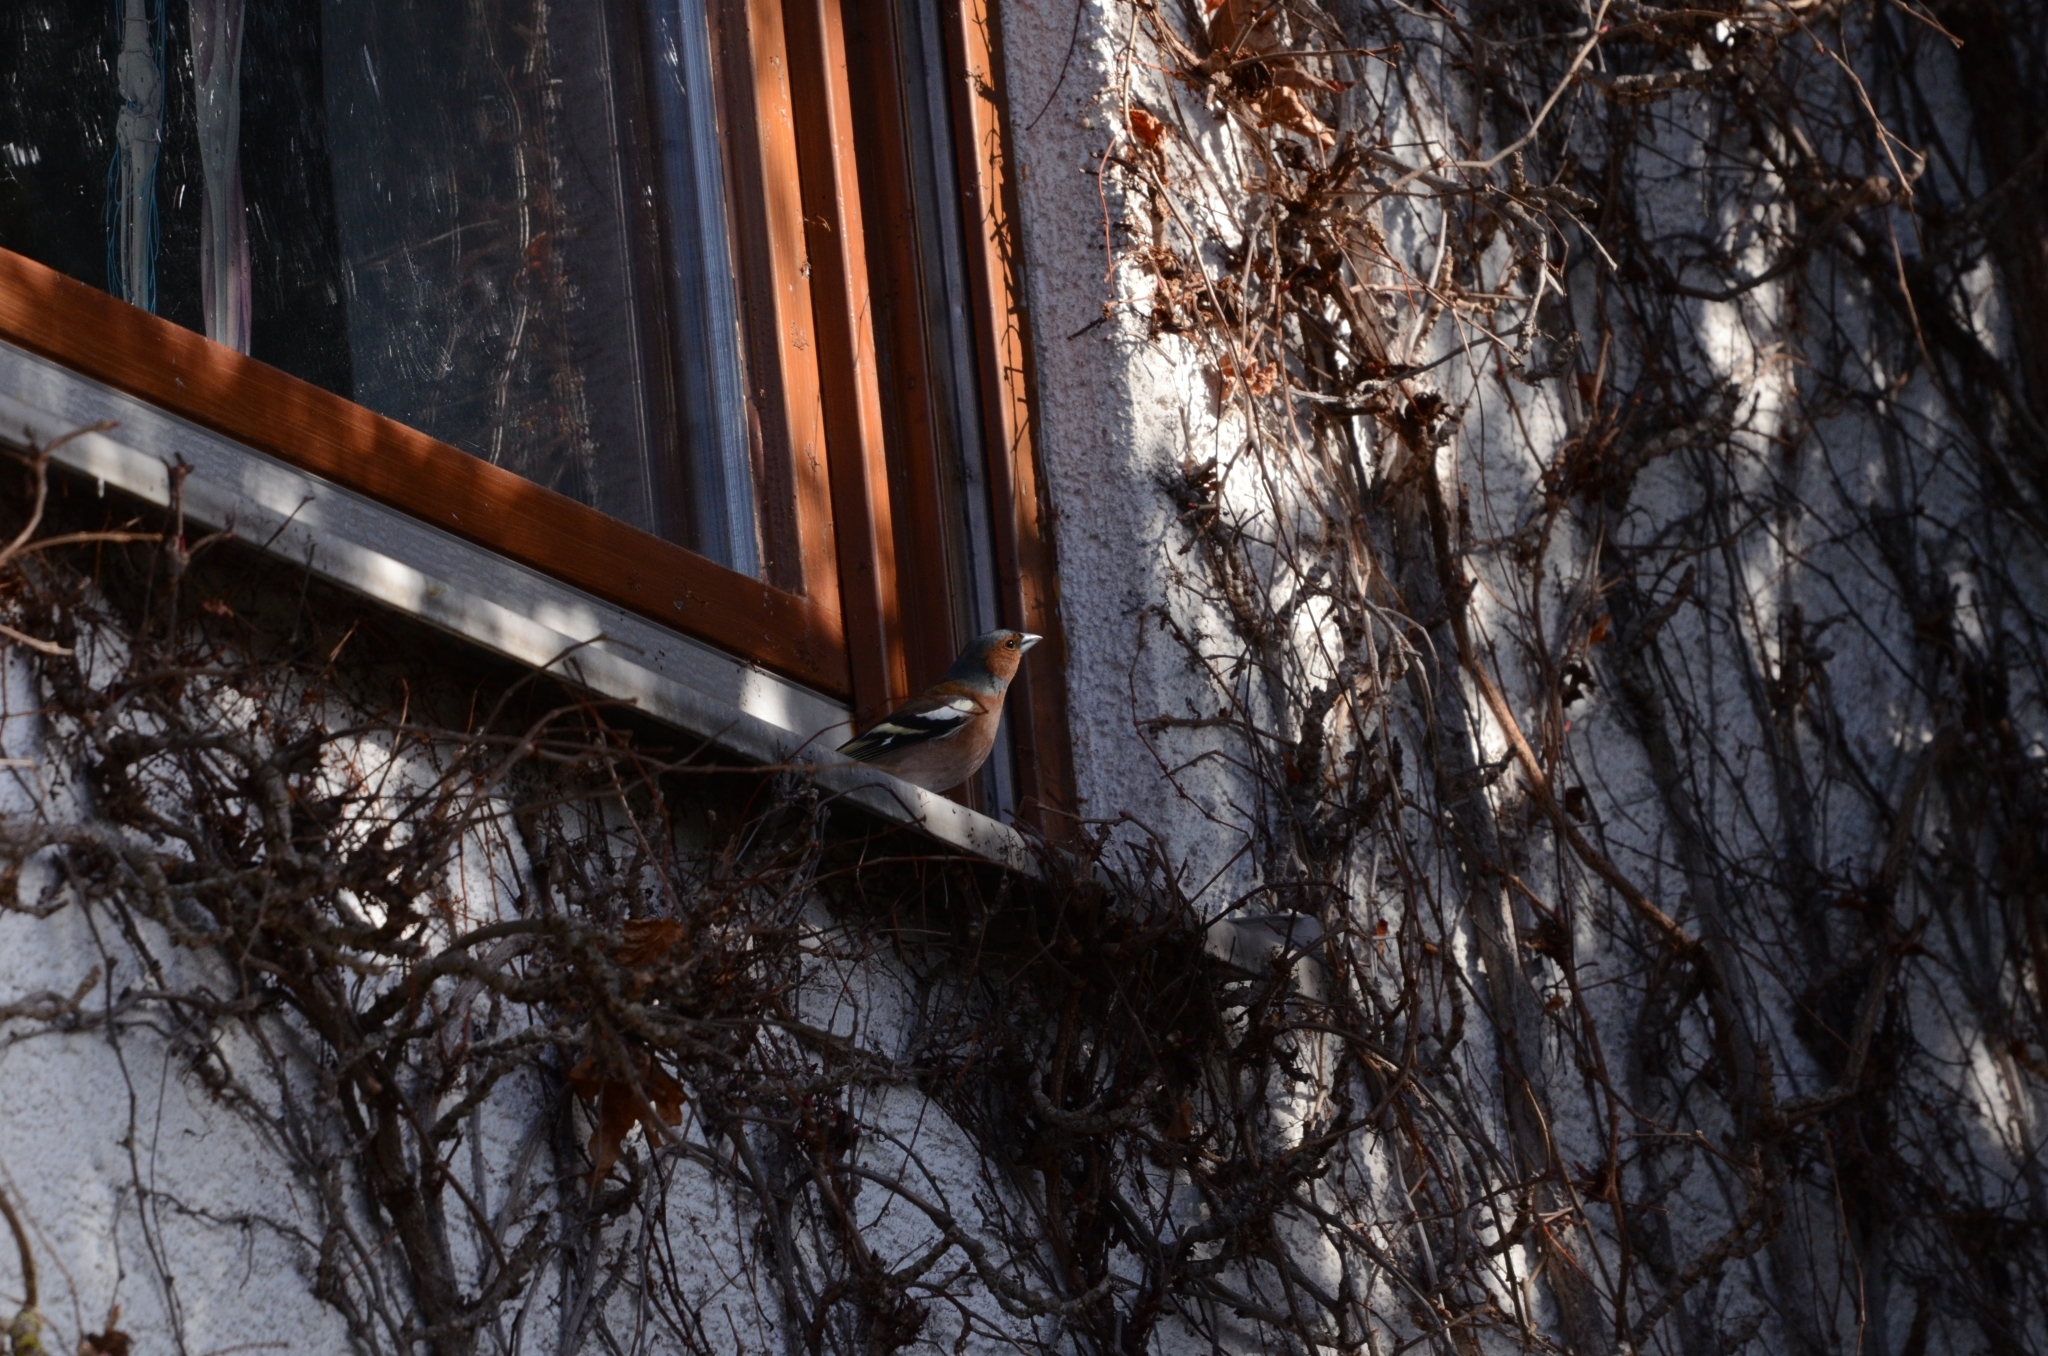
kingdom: Animalia
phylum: Chordata
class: Aves
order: Passeriformes
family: Fringillidae
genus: Fringilla
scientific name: Fringilla coelebs
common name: Common chaffinch
